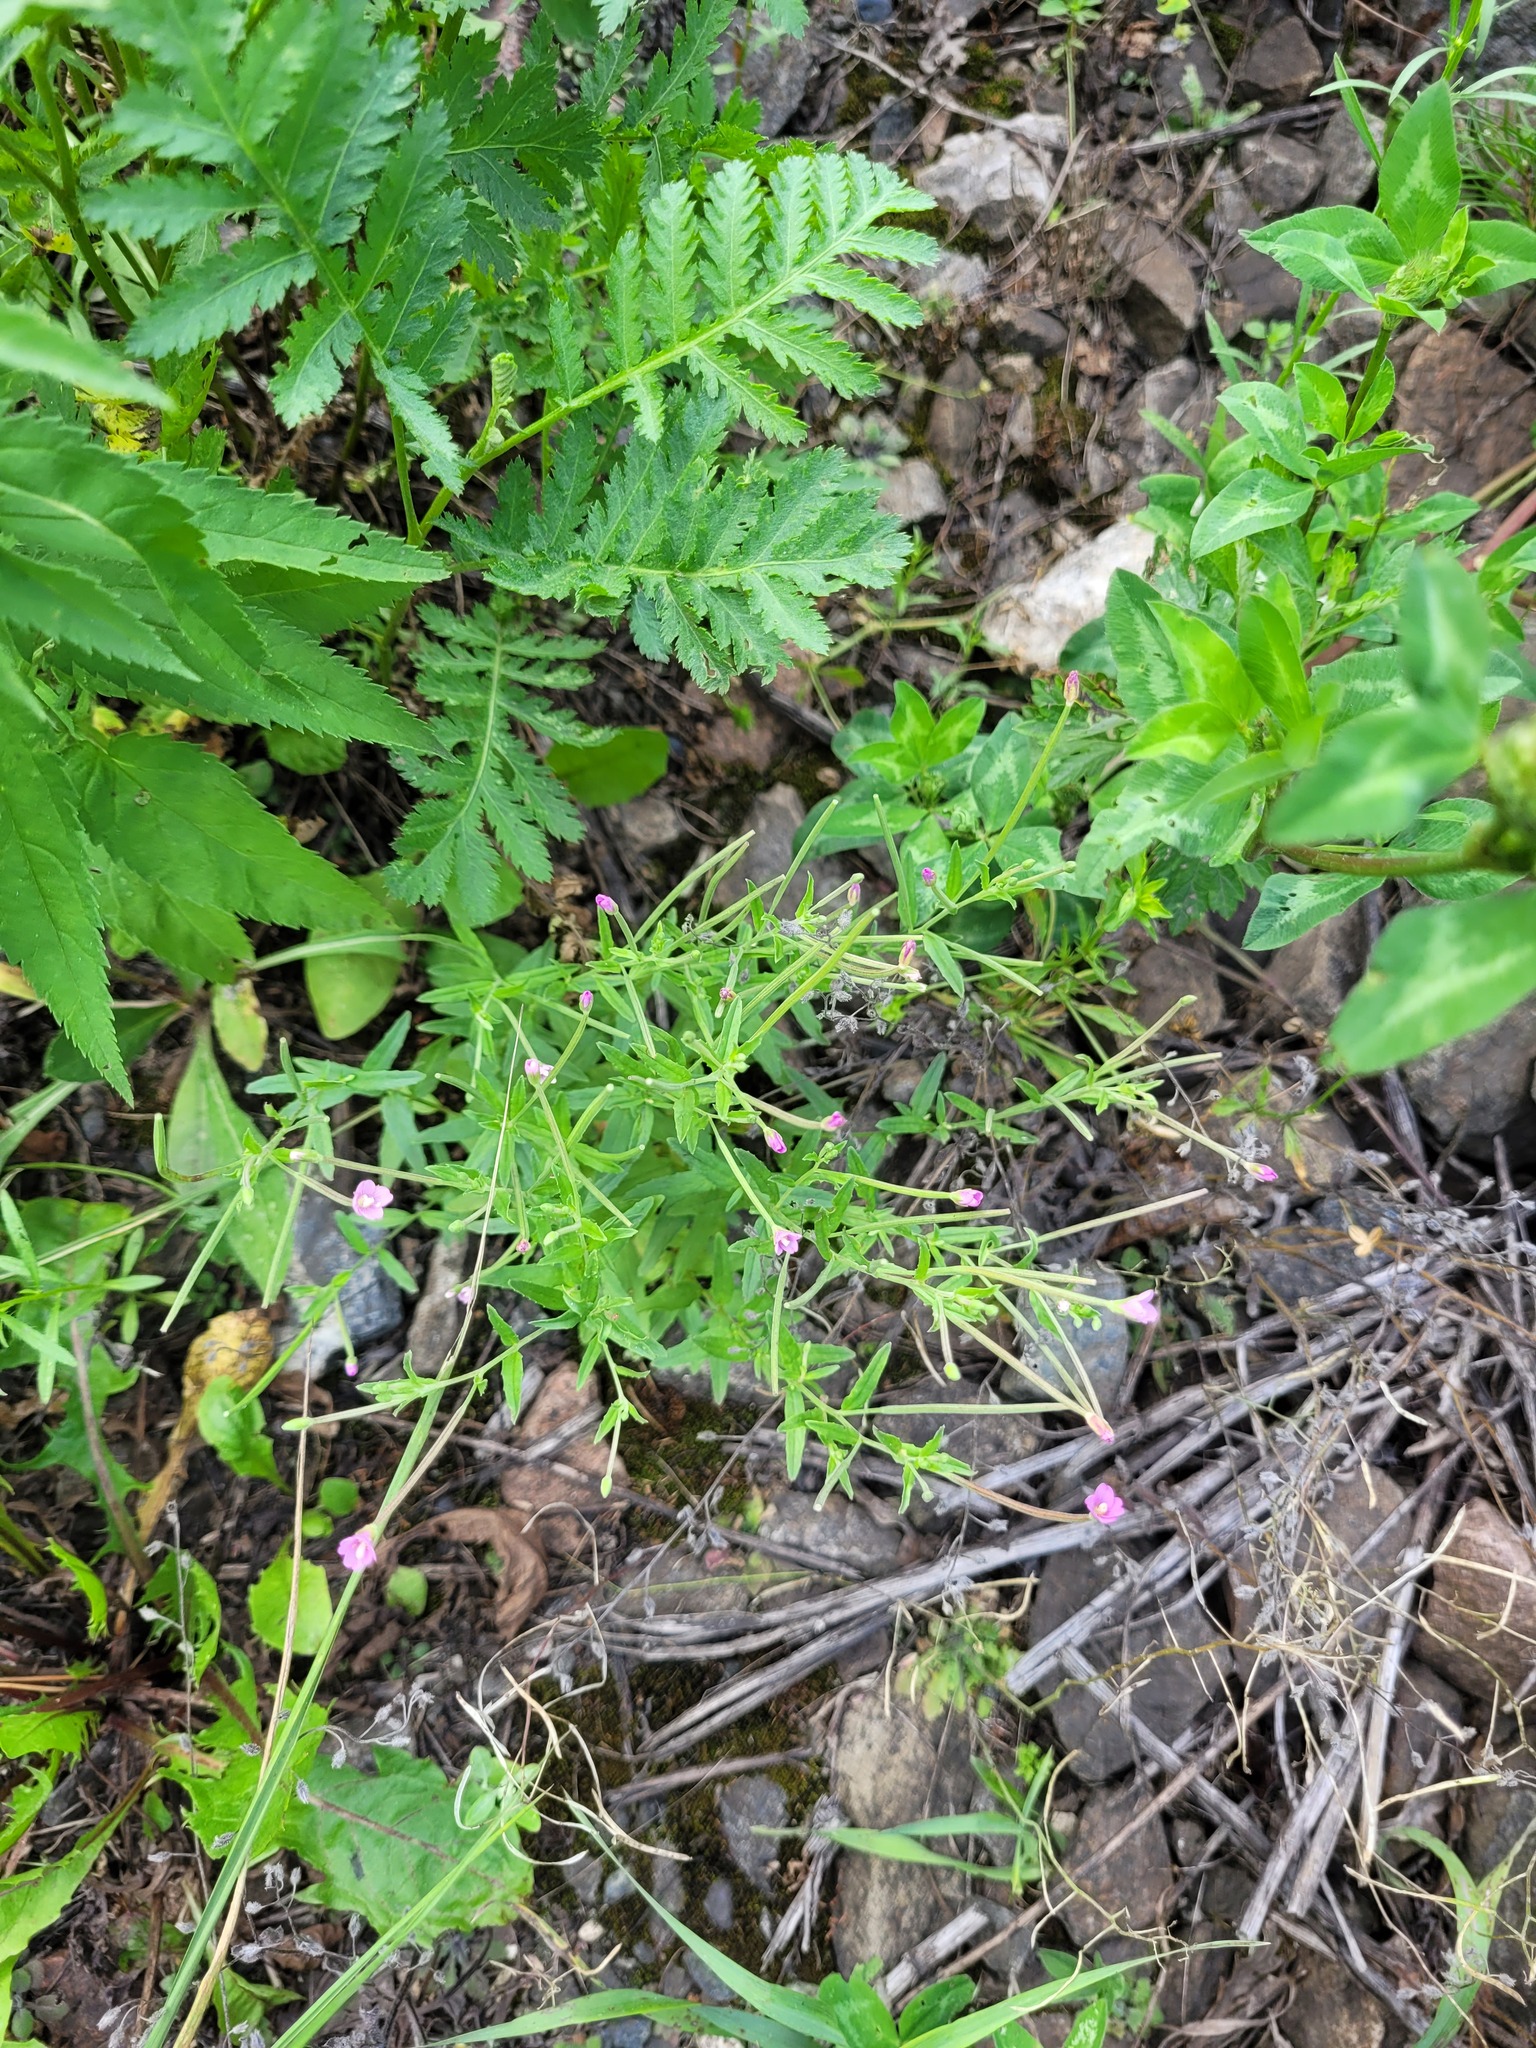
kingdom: Plantae
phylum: Tracheophyta
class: Magnoliopsida
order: Myrtales
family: Onagraceae
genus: Epilobium
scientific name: Epilobium tetragonum
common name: Square-stemmed willowherb
